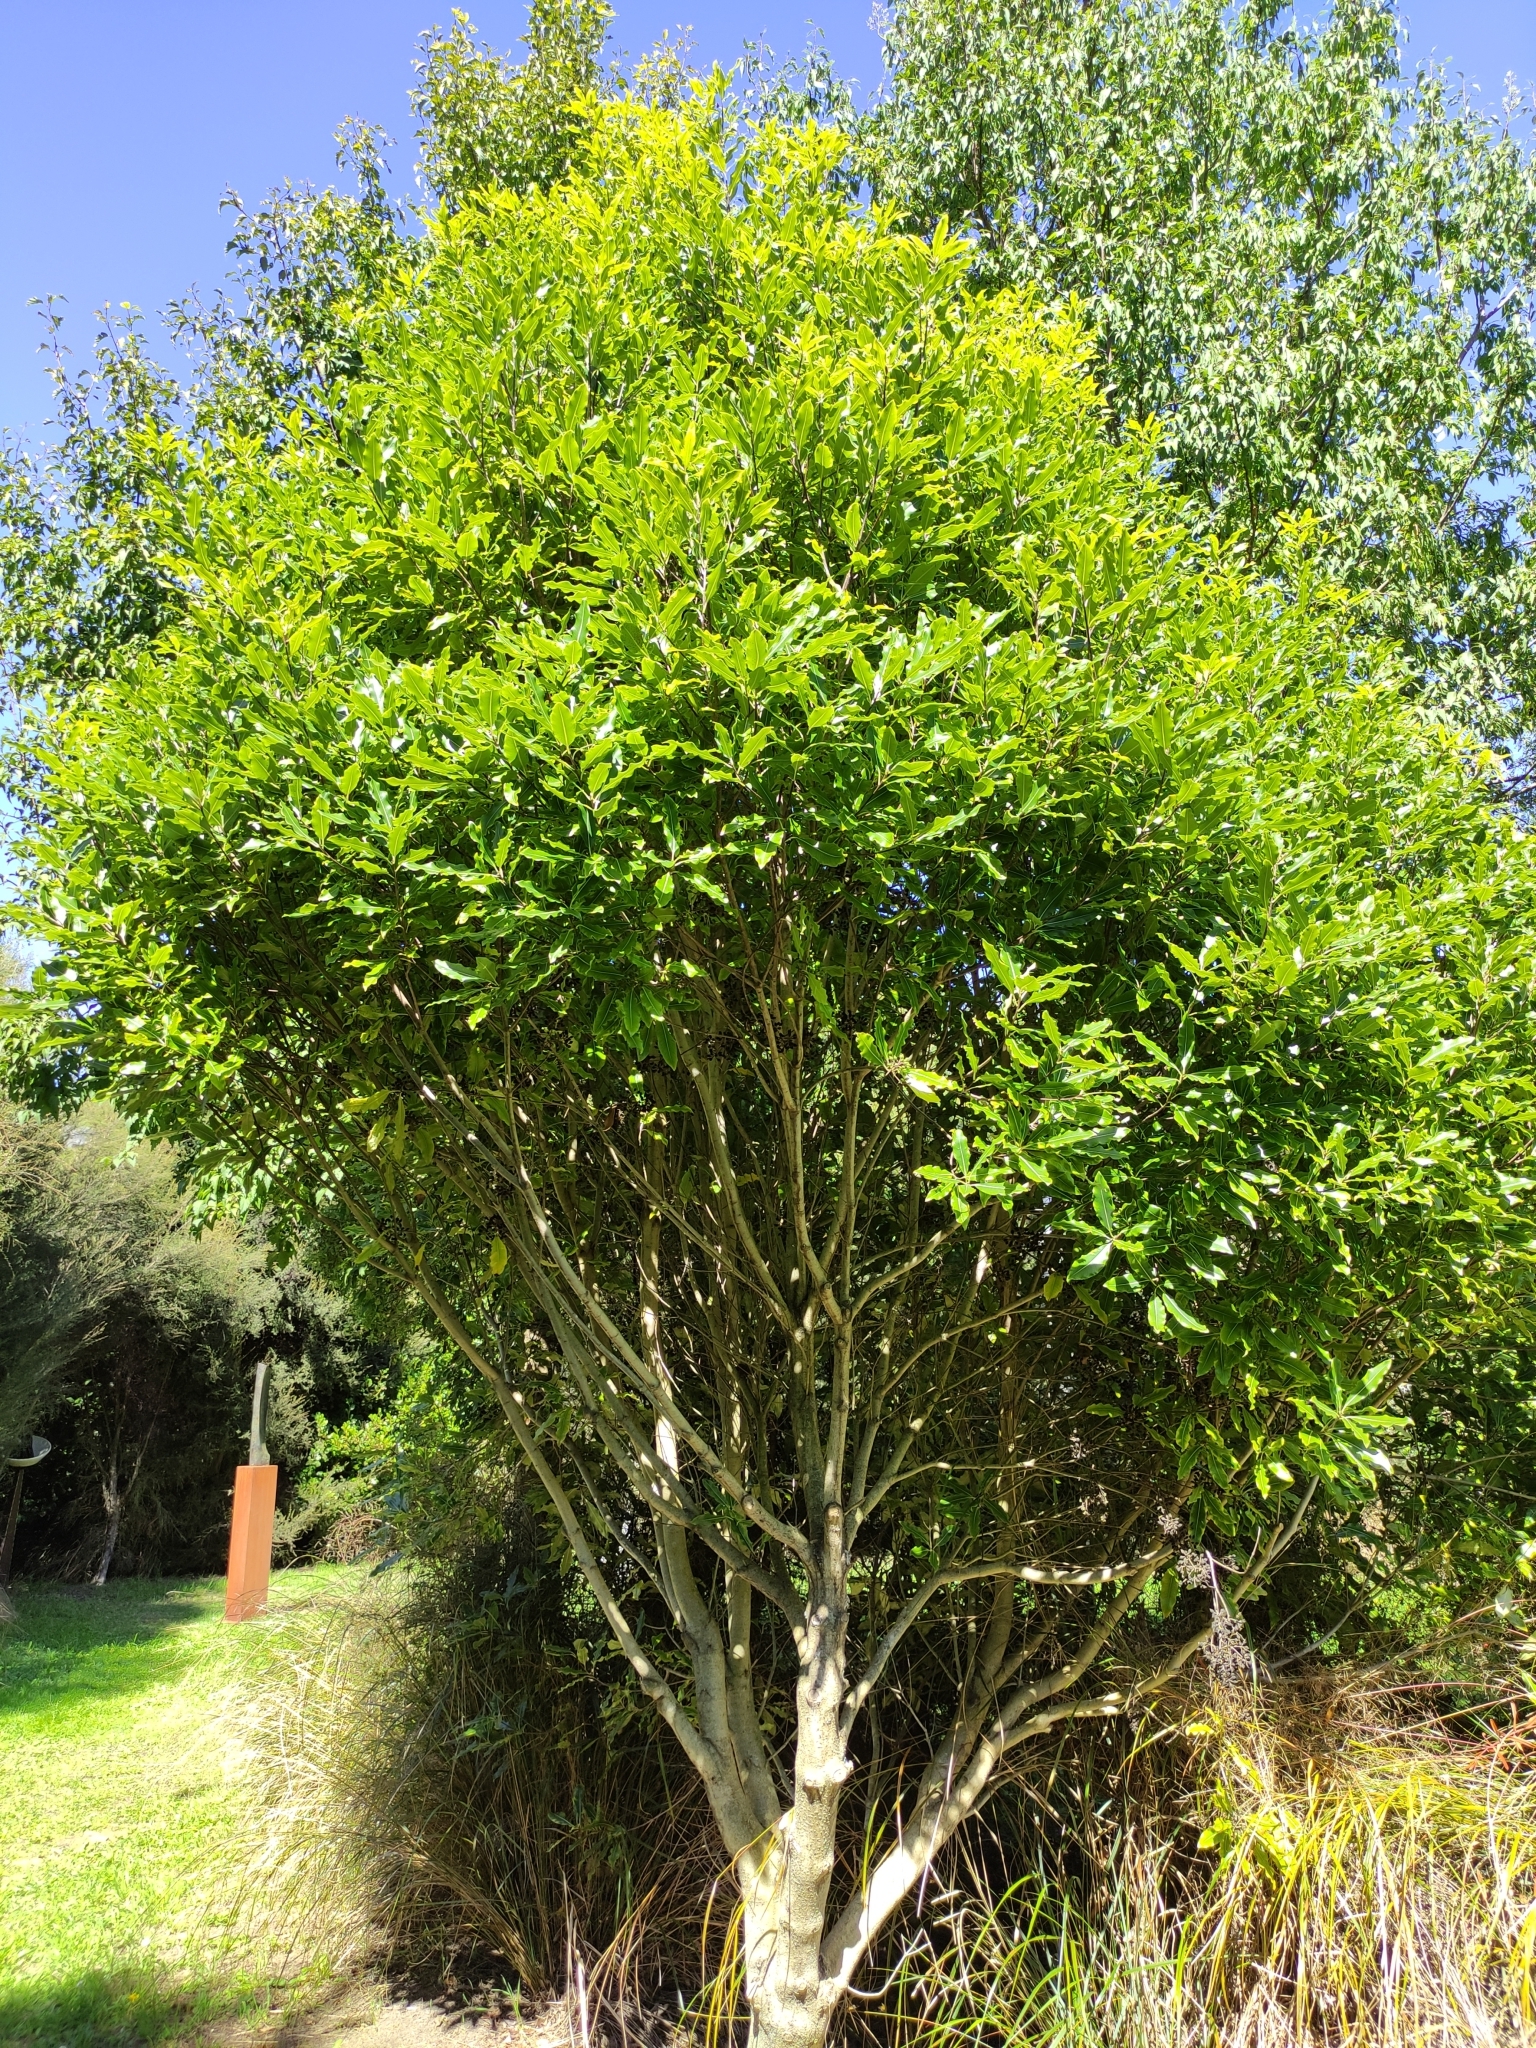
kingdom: Plantae
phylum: Tracheophyta
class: Magnoliopsida
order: Apiales
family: Pittosporaceae
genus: Pittosporum
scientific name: Pittosporum eugenioides
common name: Lemonwood
